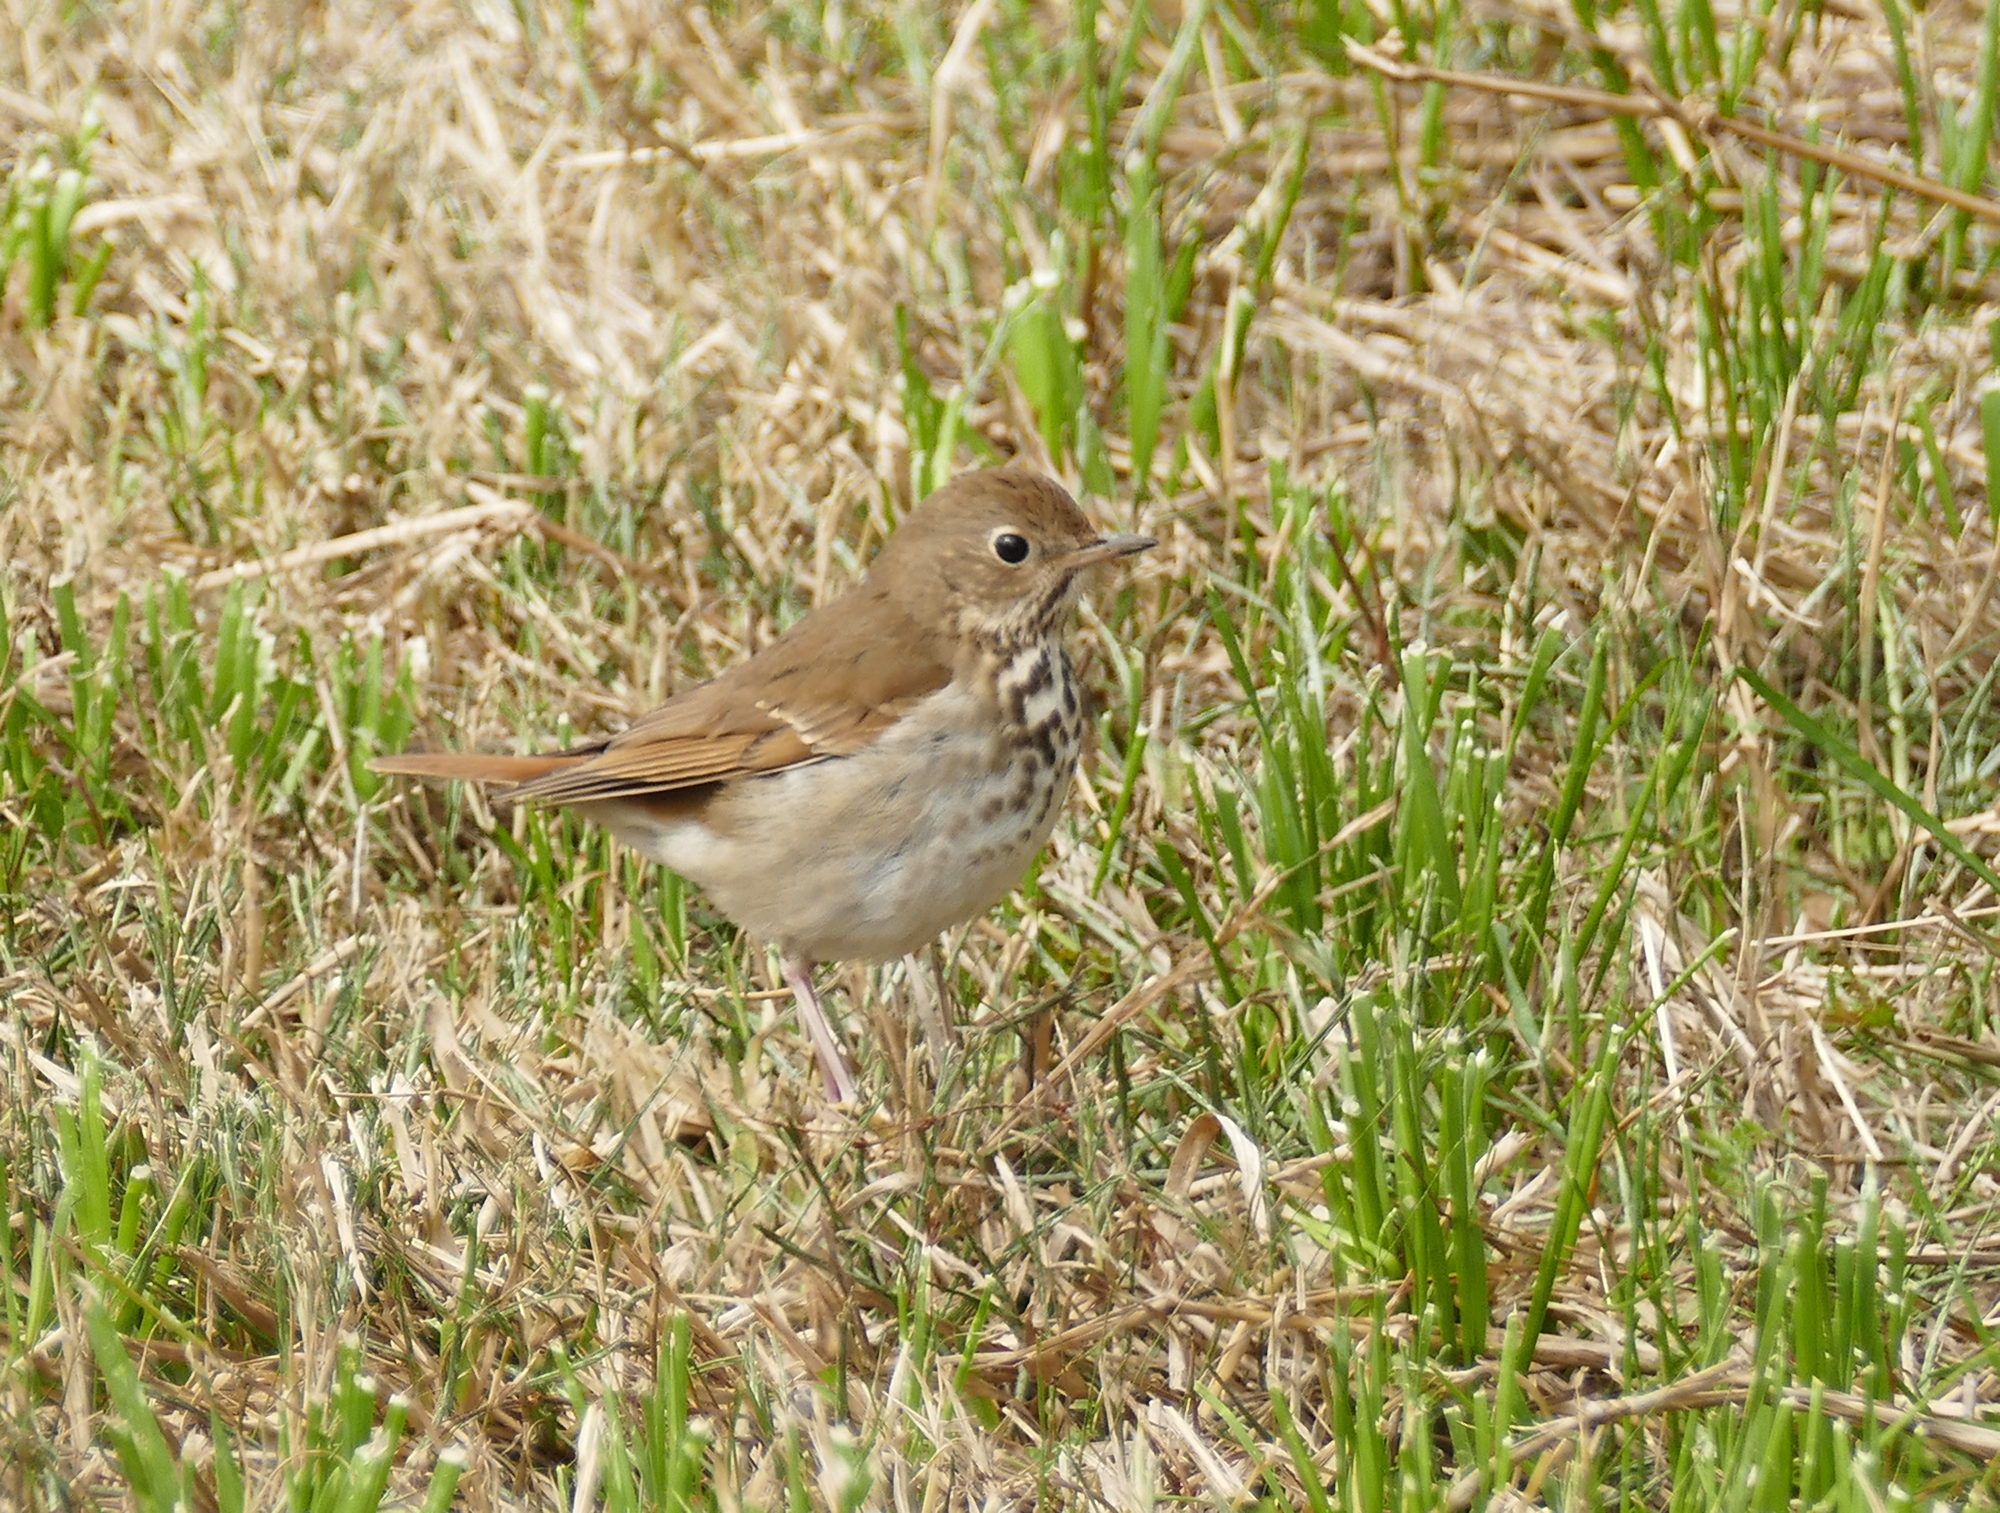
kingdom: Animalia
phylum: Chordata
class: Aves
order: Passeriformes
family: Turdidae
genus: Catharus
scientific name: Catharus guttatus
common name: Hermit thrush
